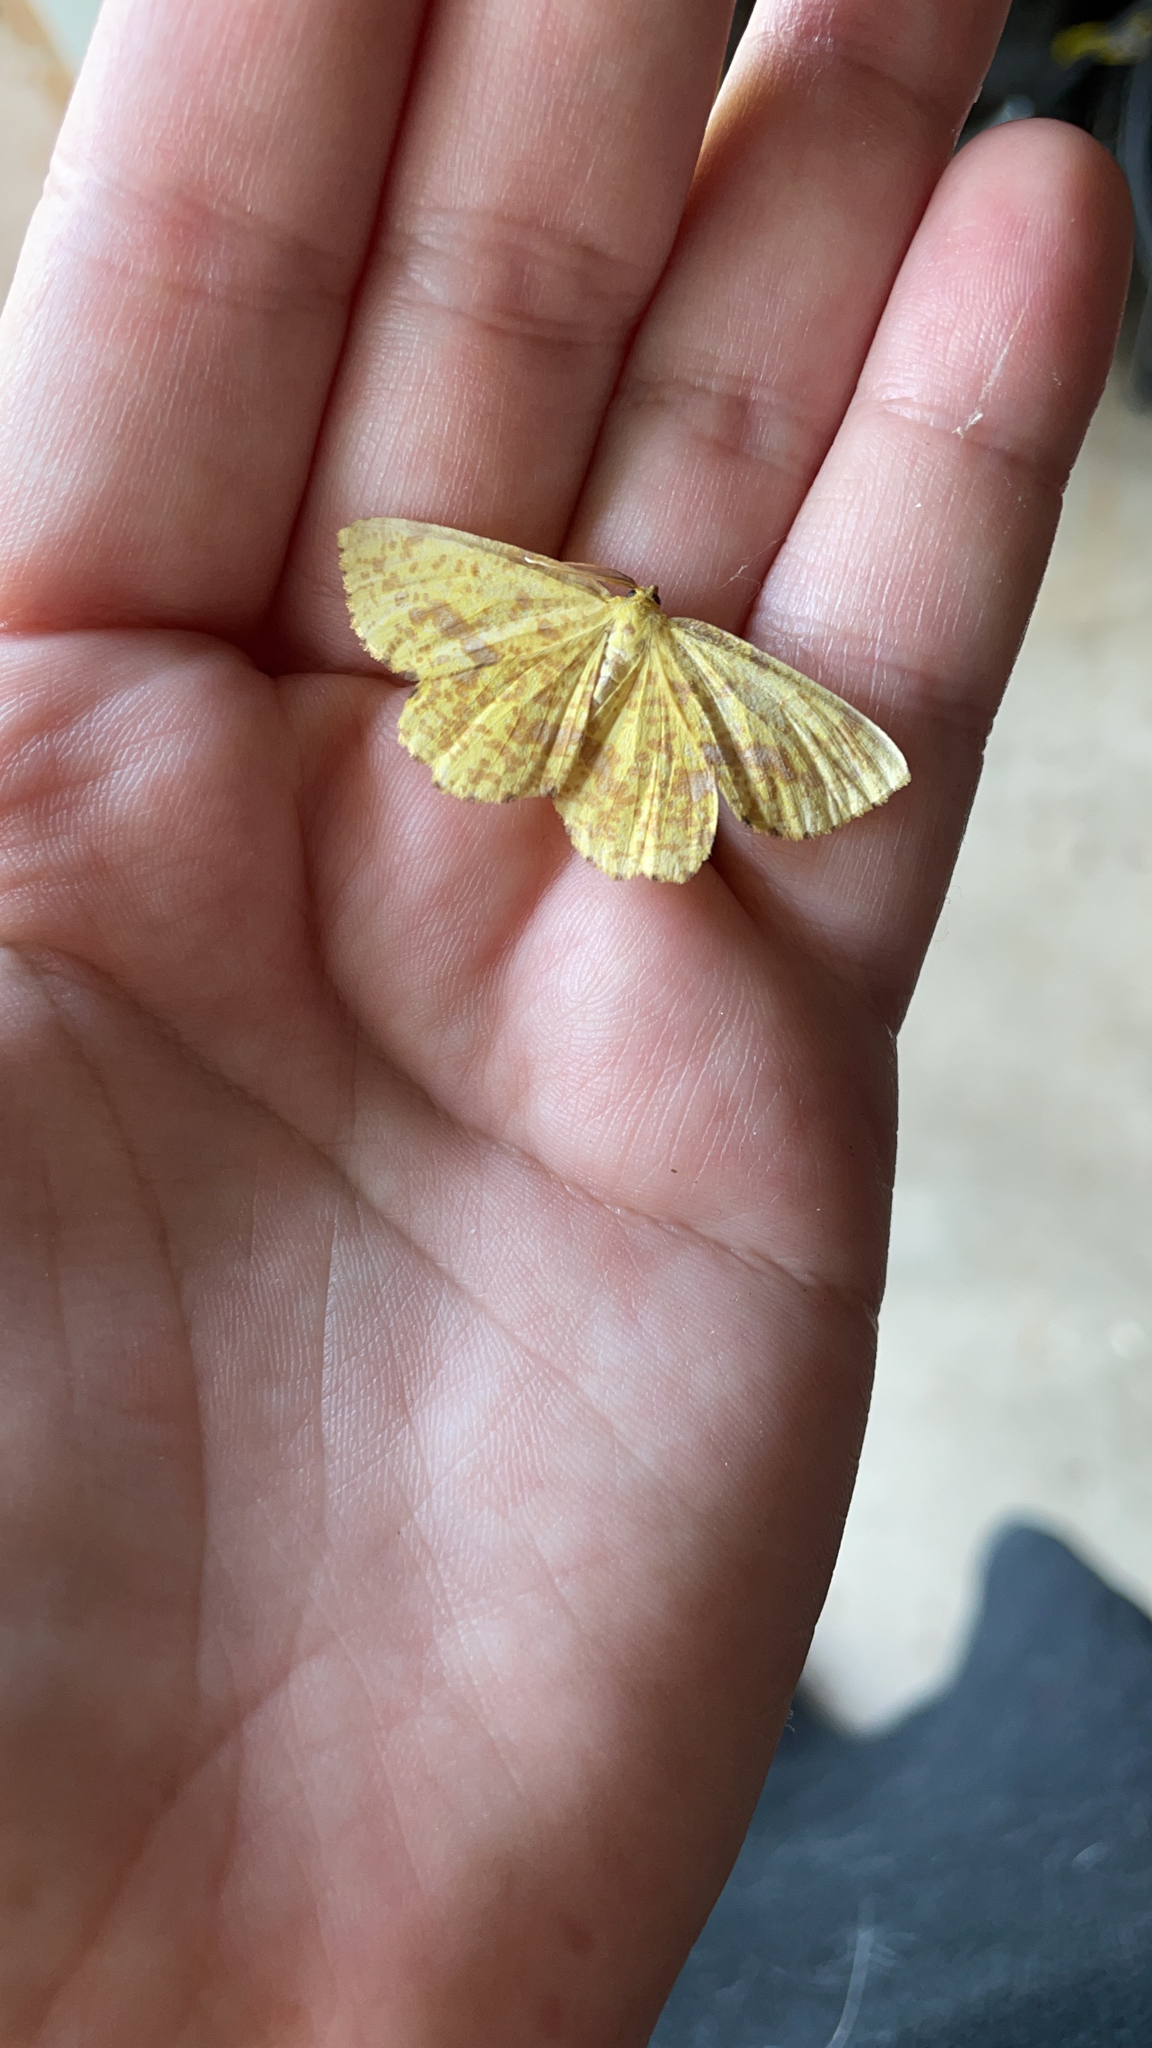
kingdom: Animalia
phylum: Arthropoda
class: Insecta
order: Lepidoptera
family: Geometridae
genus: Xanthotype
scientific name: Xanthotype
